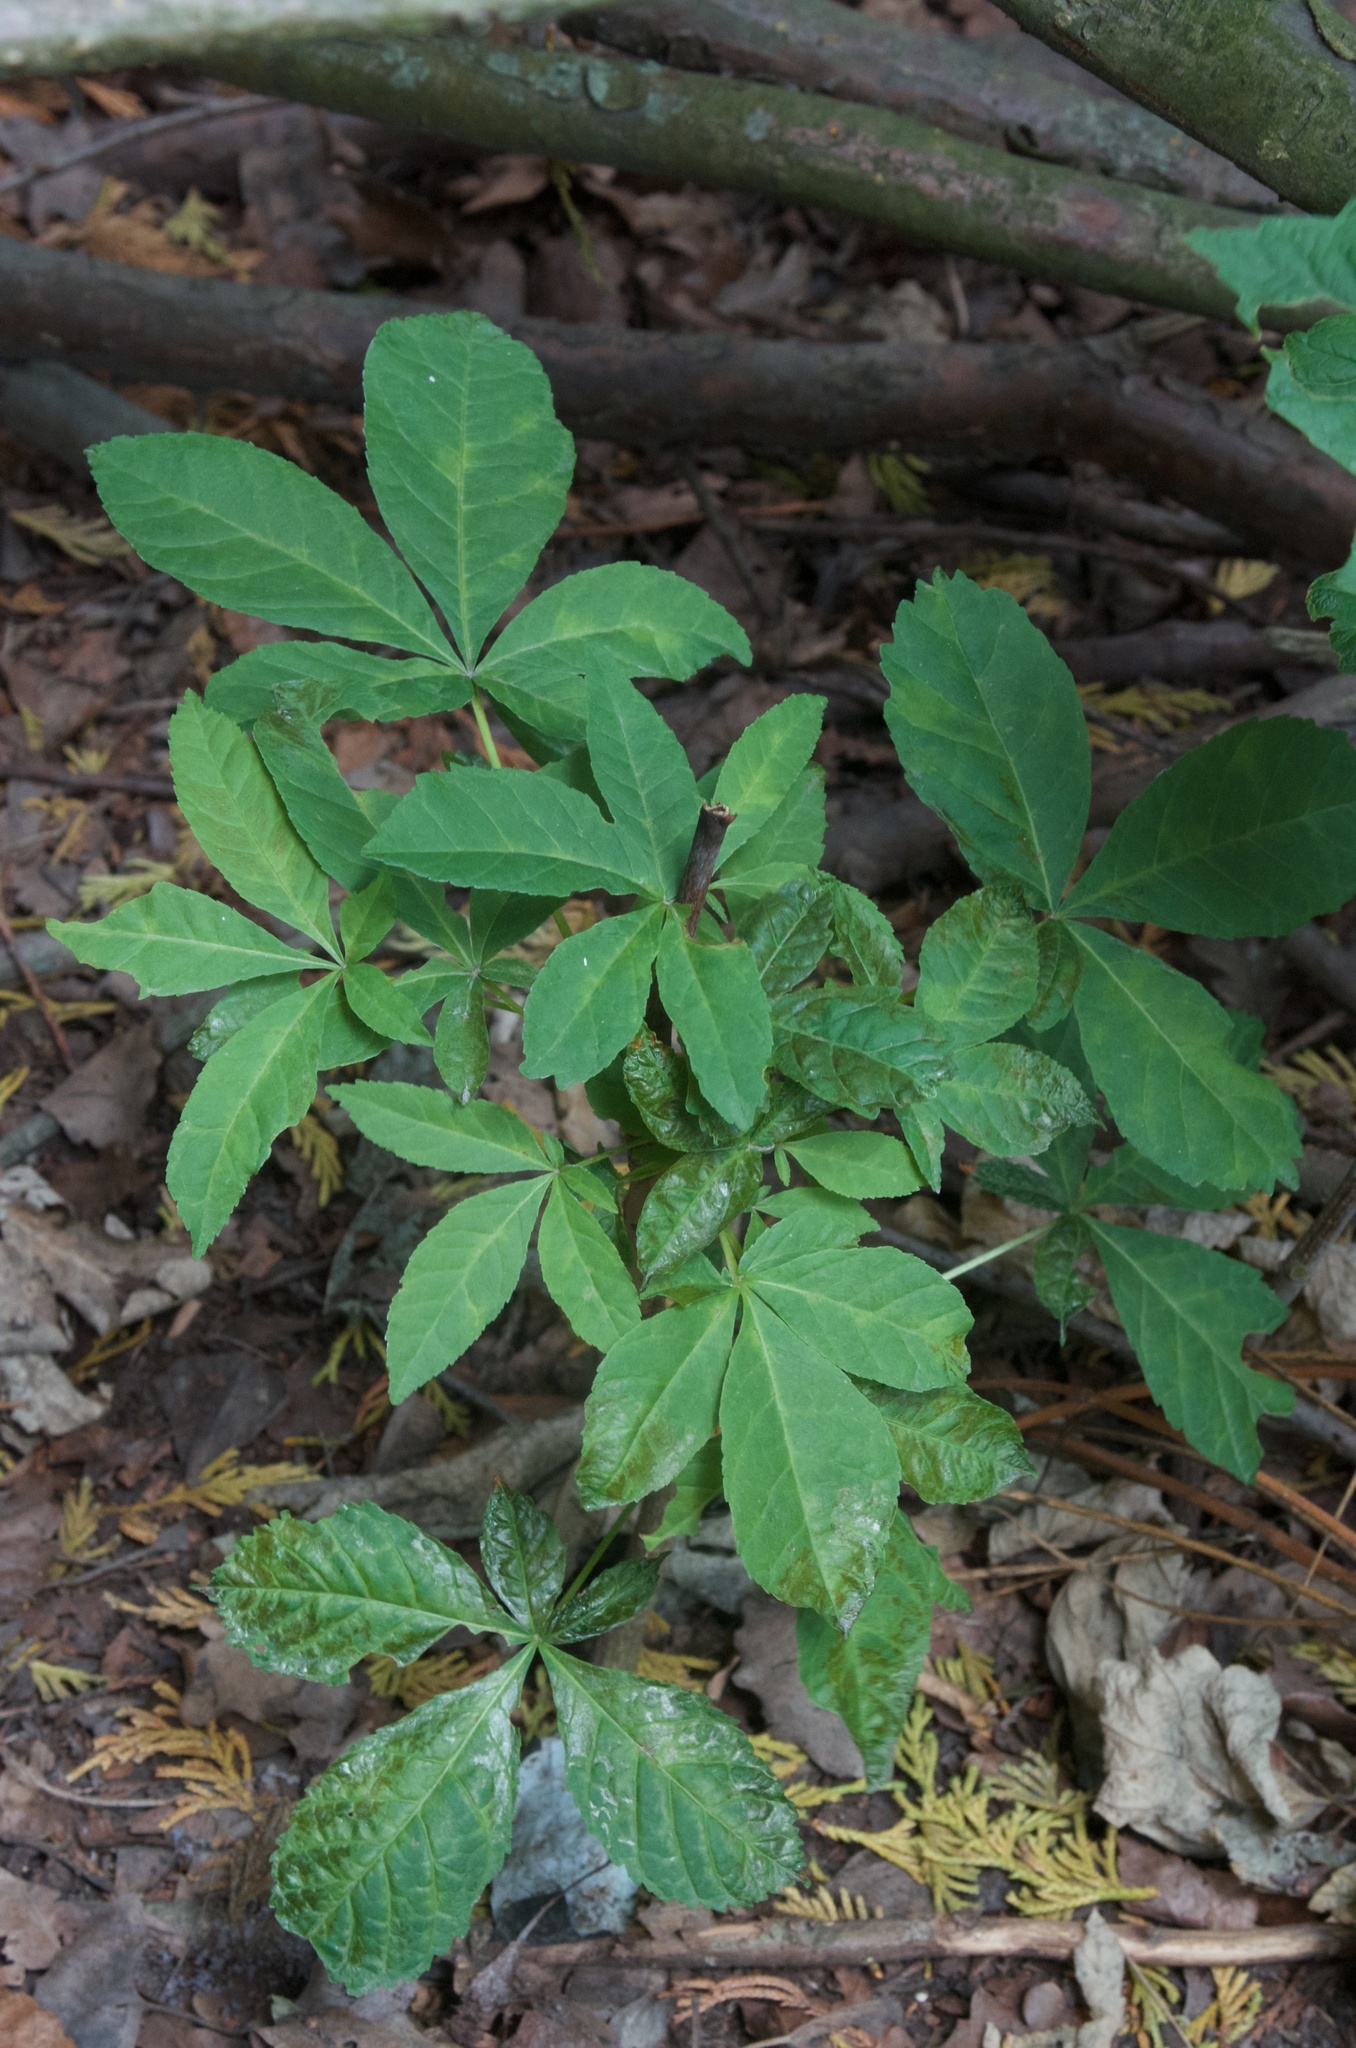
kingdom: Plantae
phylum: Tracheophyta
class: Magnoliopsida
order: Sapindales
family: Sapindaceae
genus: Aesculus
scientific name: Aesculus hippocastanum
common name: Horse-chestnut
